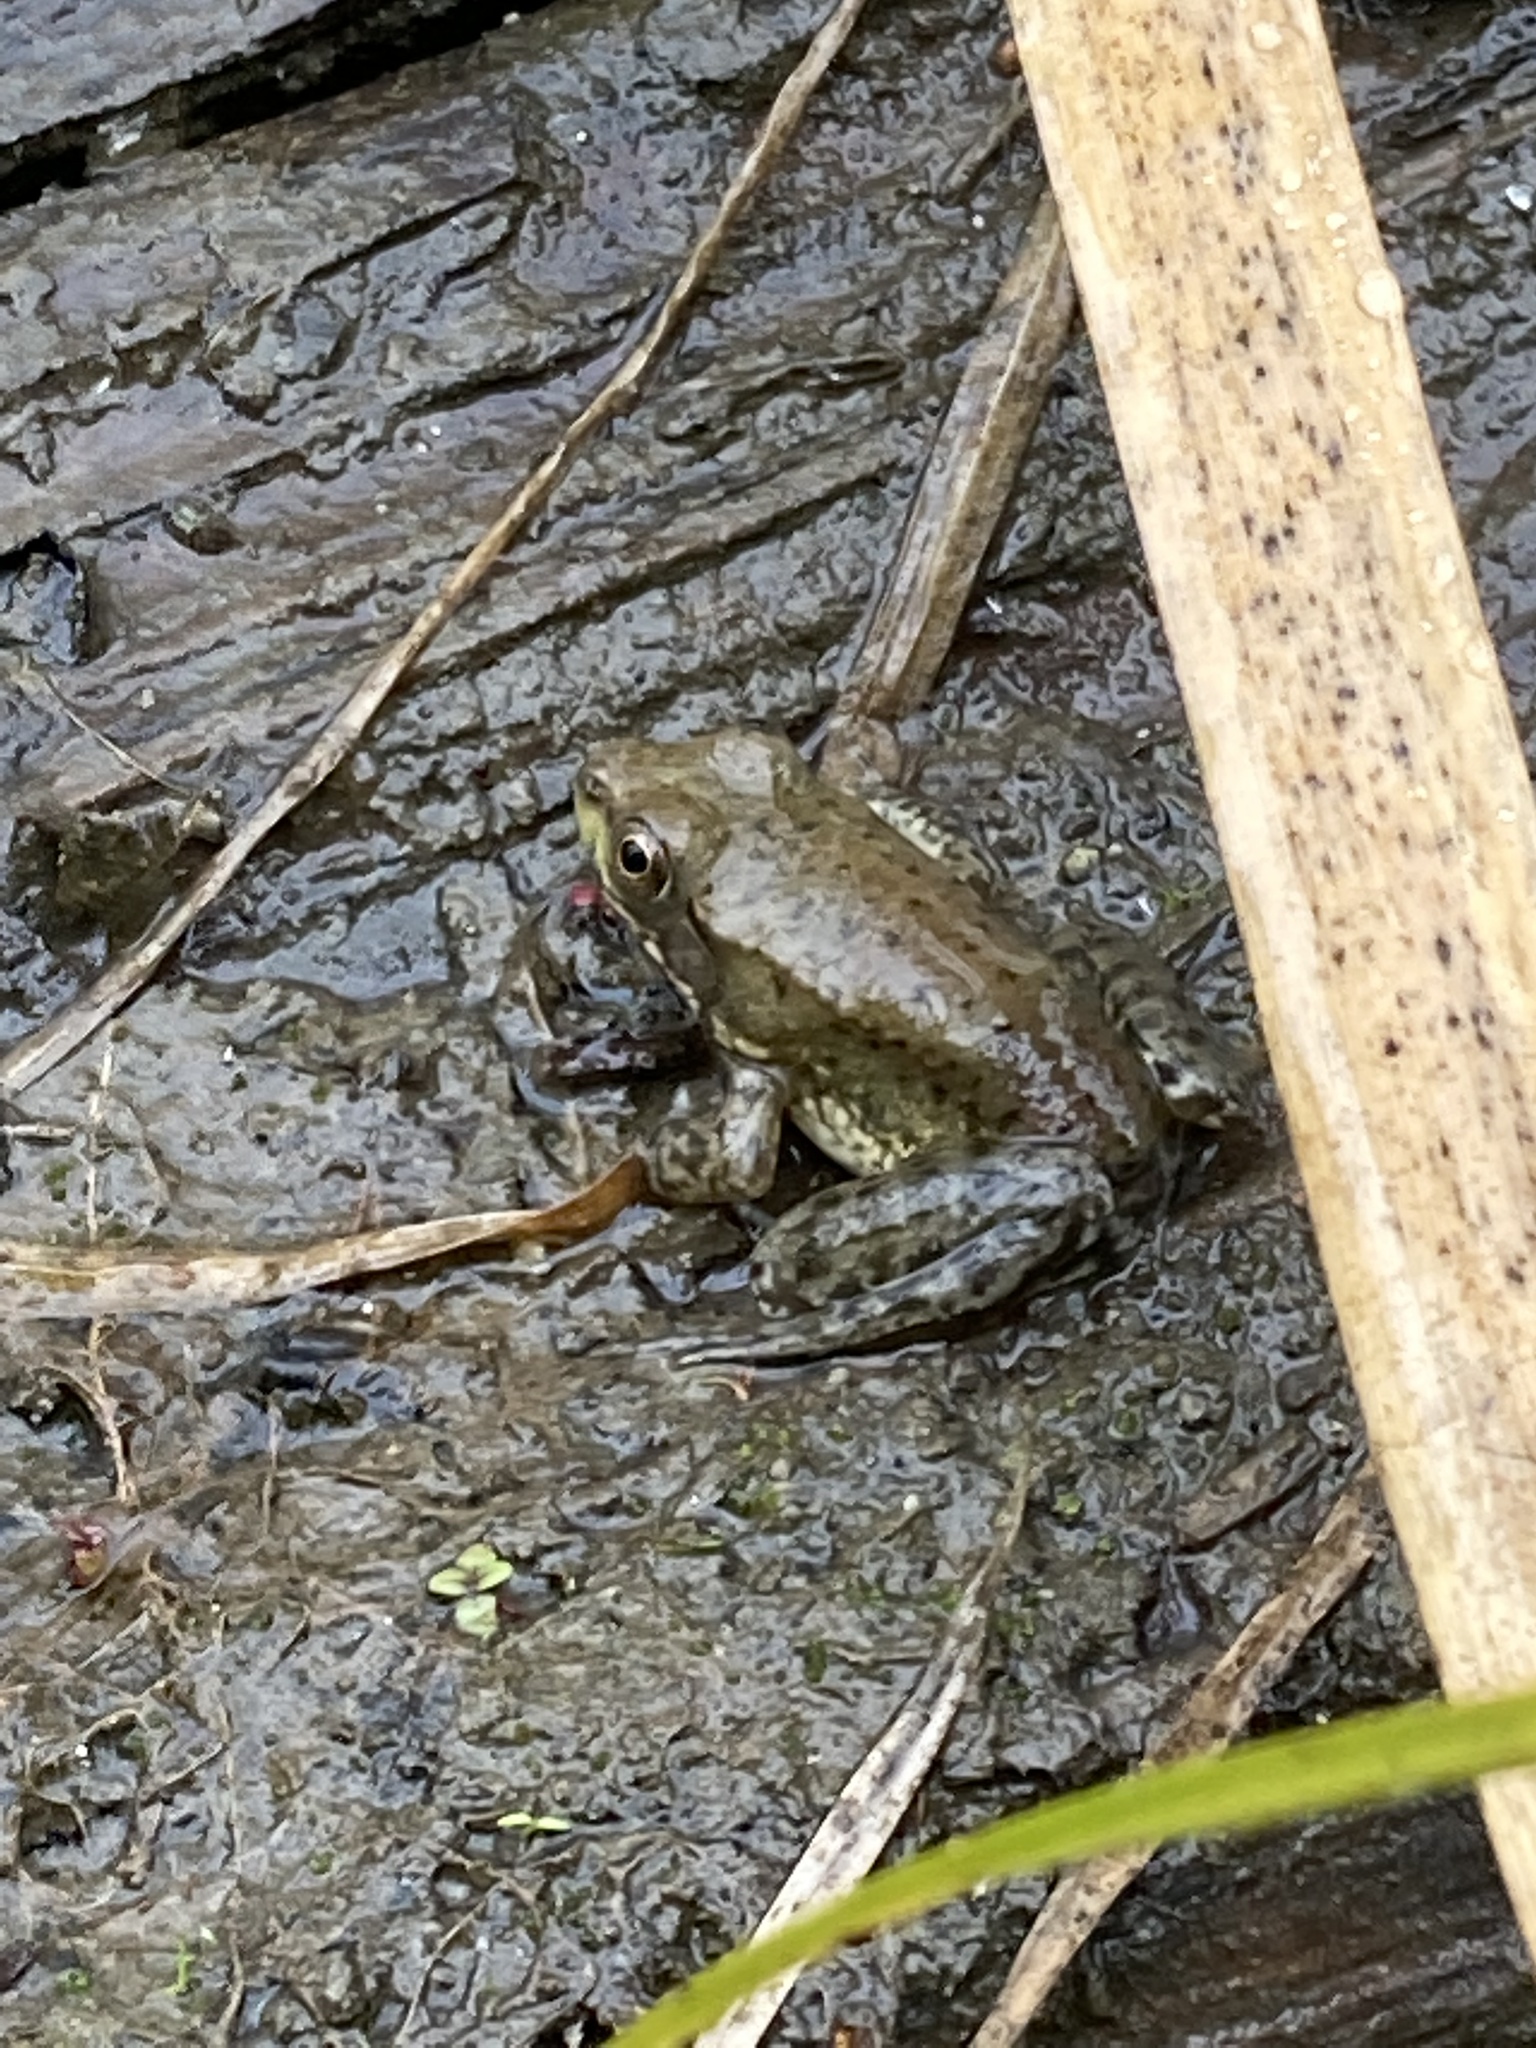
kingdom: Animalia
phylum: Chordata
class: Amphibia
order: Anura
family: Ranidae
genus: Lithobates
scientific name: Lithobates clamitans
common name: Green frog
